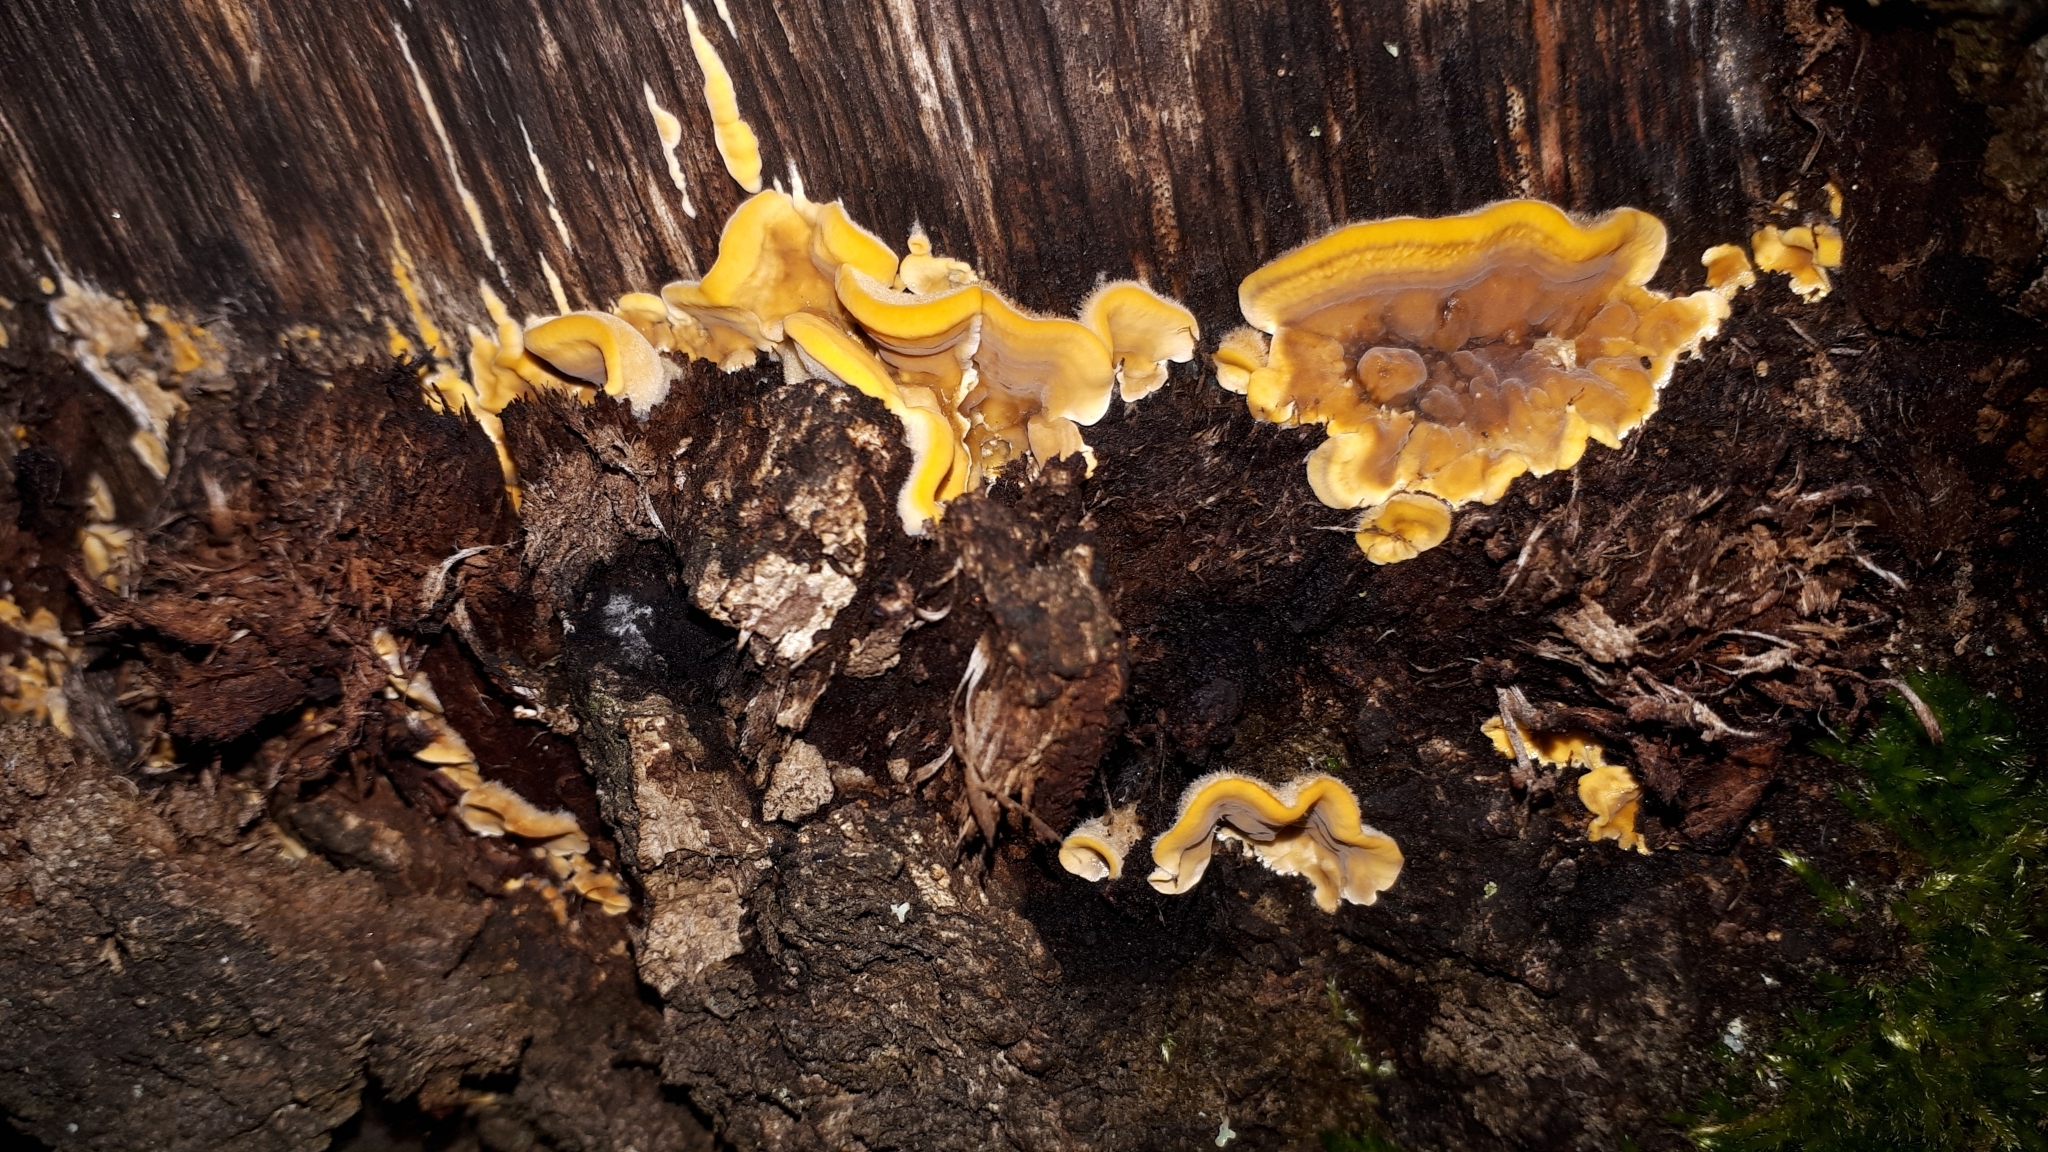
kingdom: Fungi
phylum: Basidiomycota
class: Agaricomycetes
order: Russulales
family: Stereaceae
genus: Stereum
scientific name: Stereum hirsutum
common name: Hairy curtain crust
